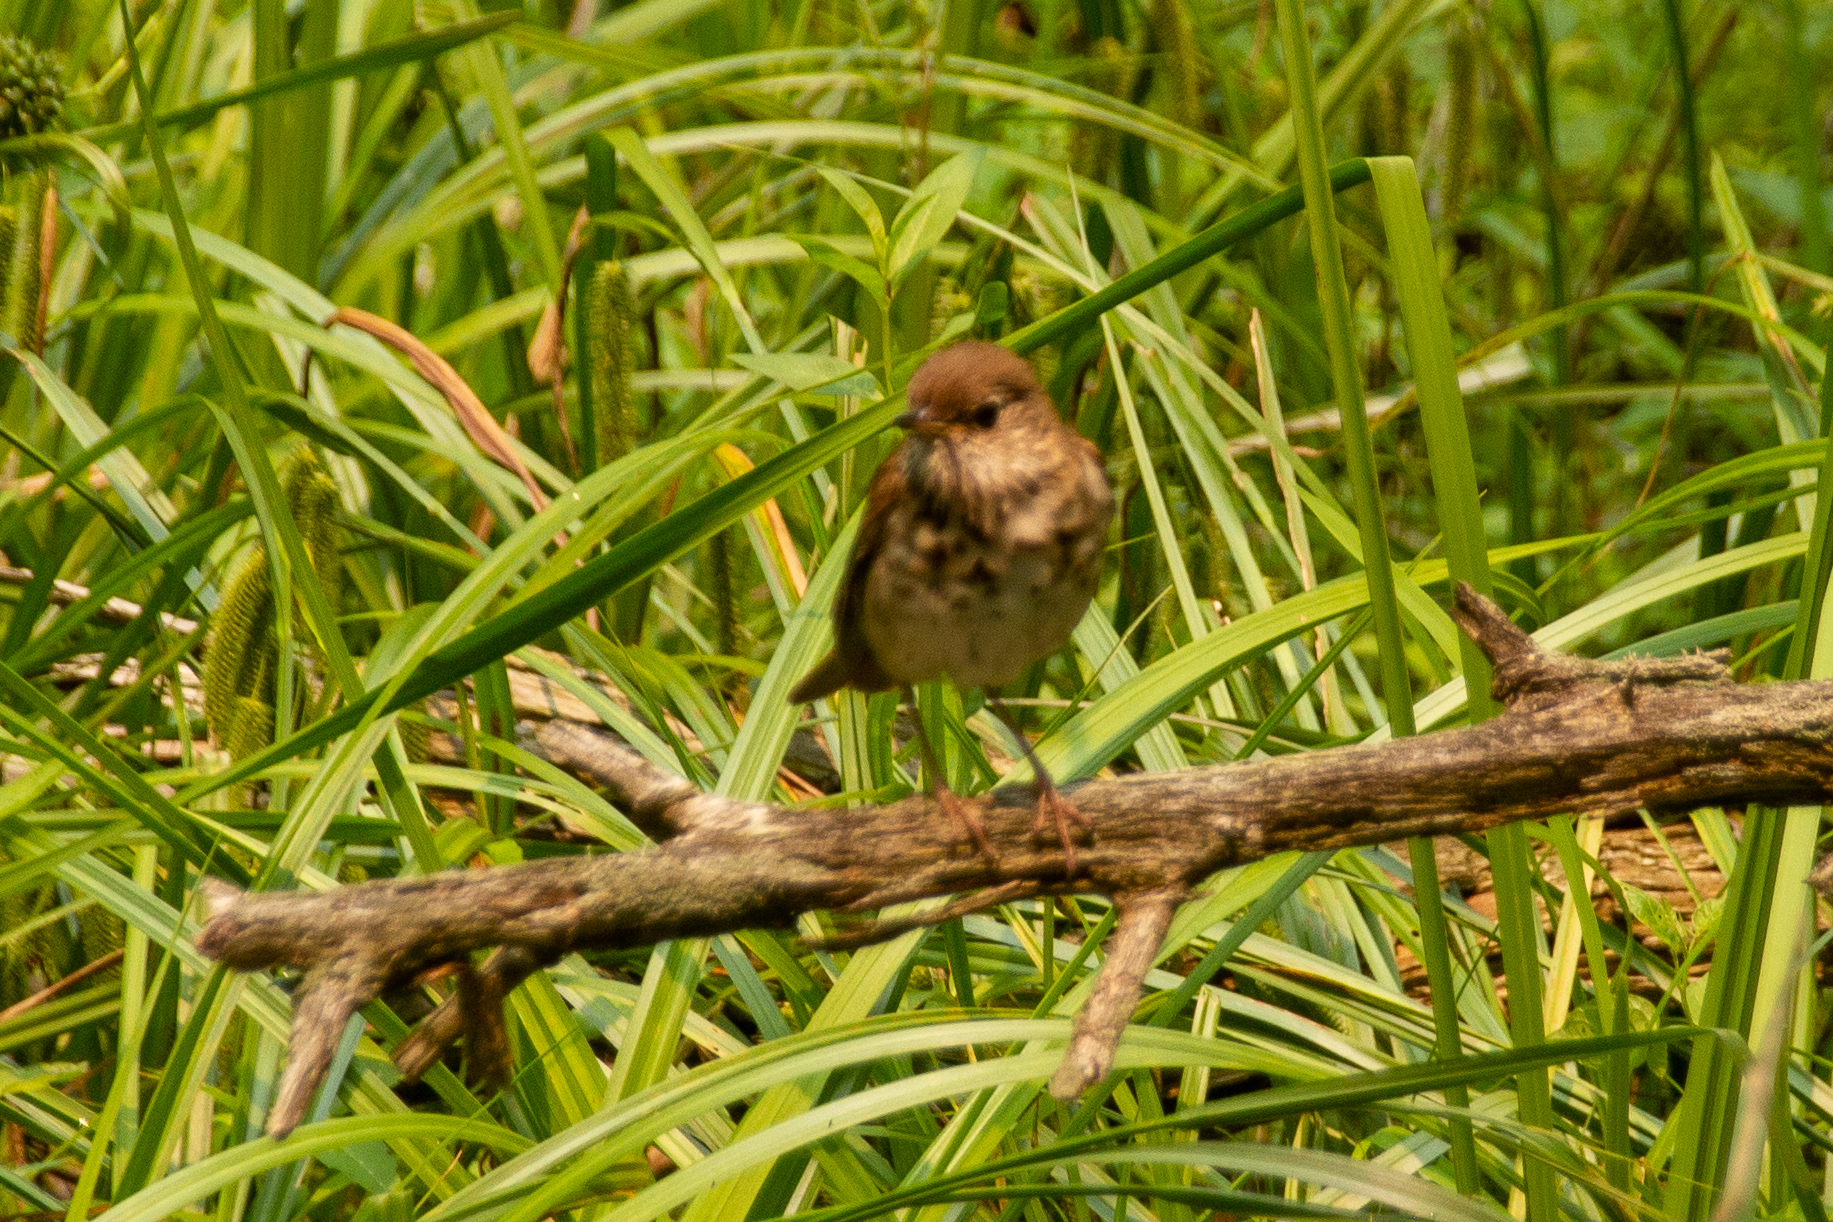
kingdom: Animalia
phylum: Chordata
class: Aves
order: Passeriformes
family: Turdidae
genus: Catharus
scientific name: Catharus fuscescens
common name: Veery
